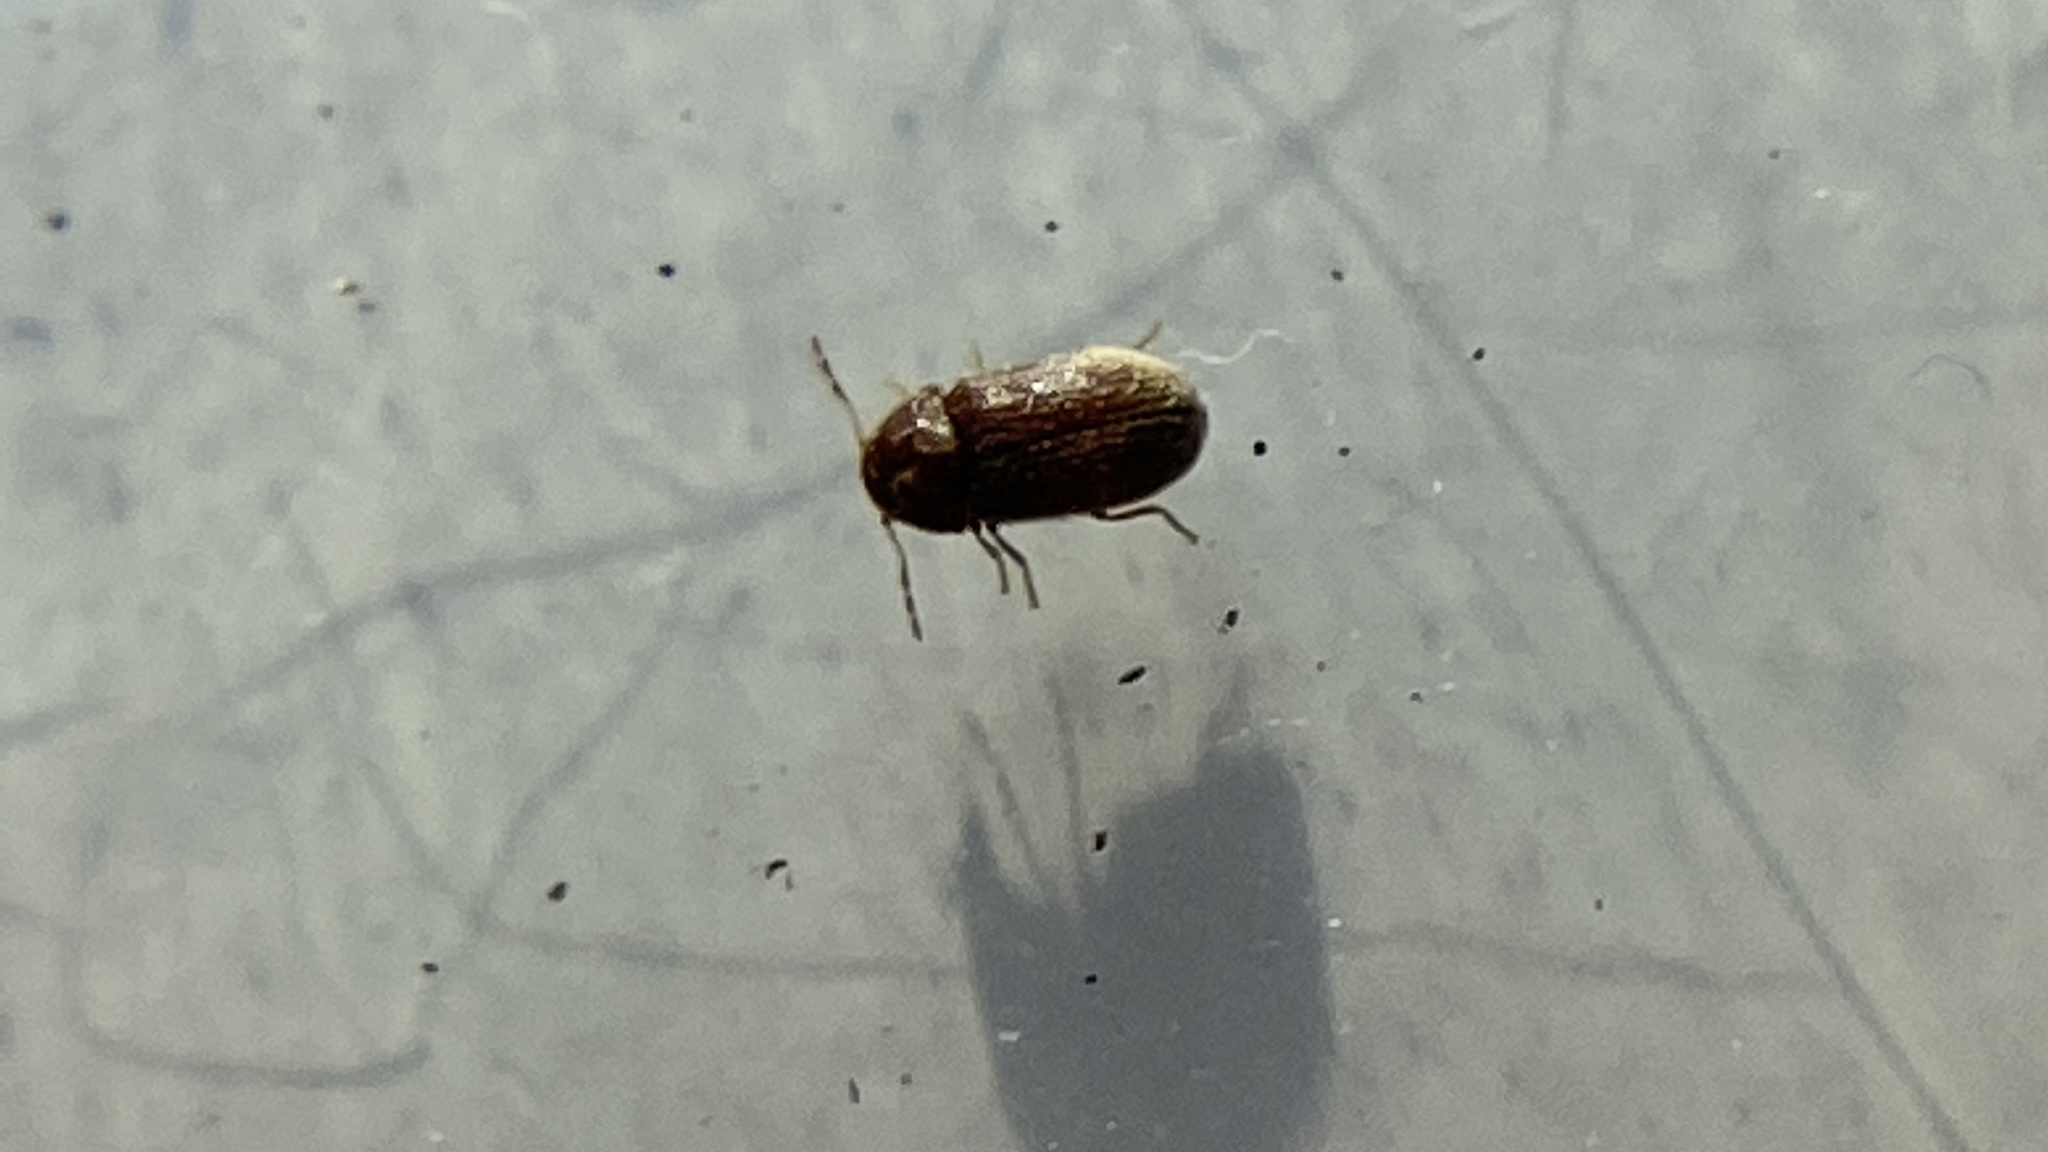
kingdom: Animalia
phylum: Arthropoda
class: Insecta
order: Coleoptera
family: Anobiidae
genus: Stegobium
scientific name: Stegobium paniceum
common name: Drugstore beetle
